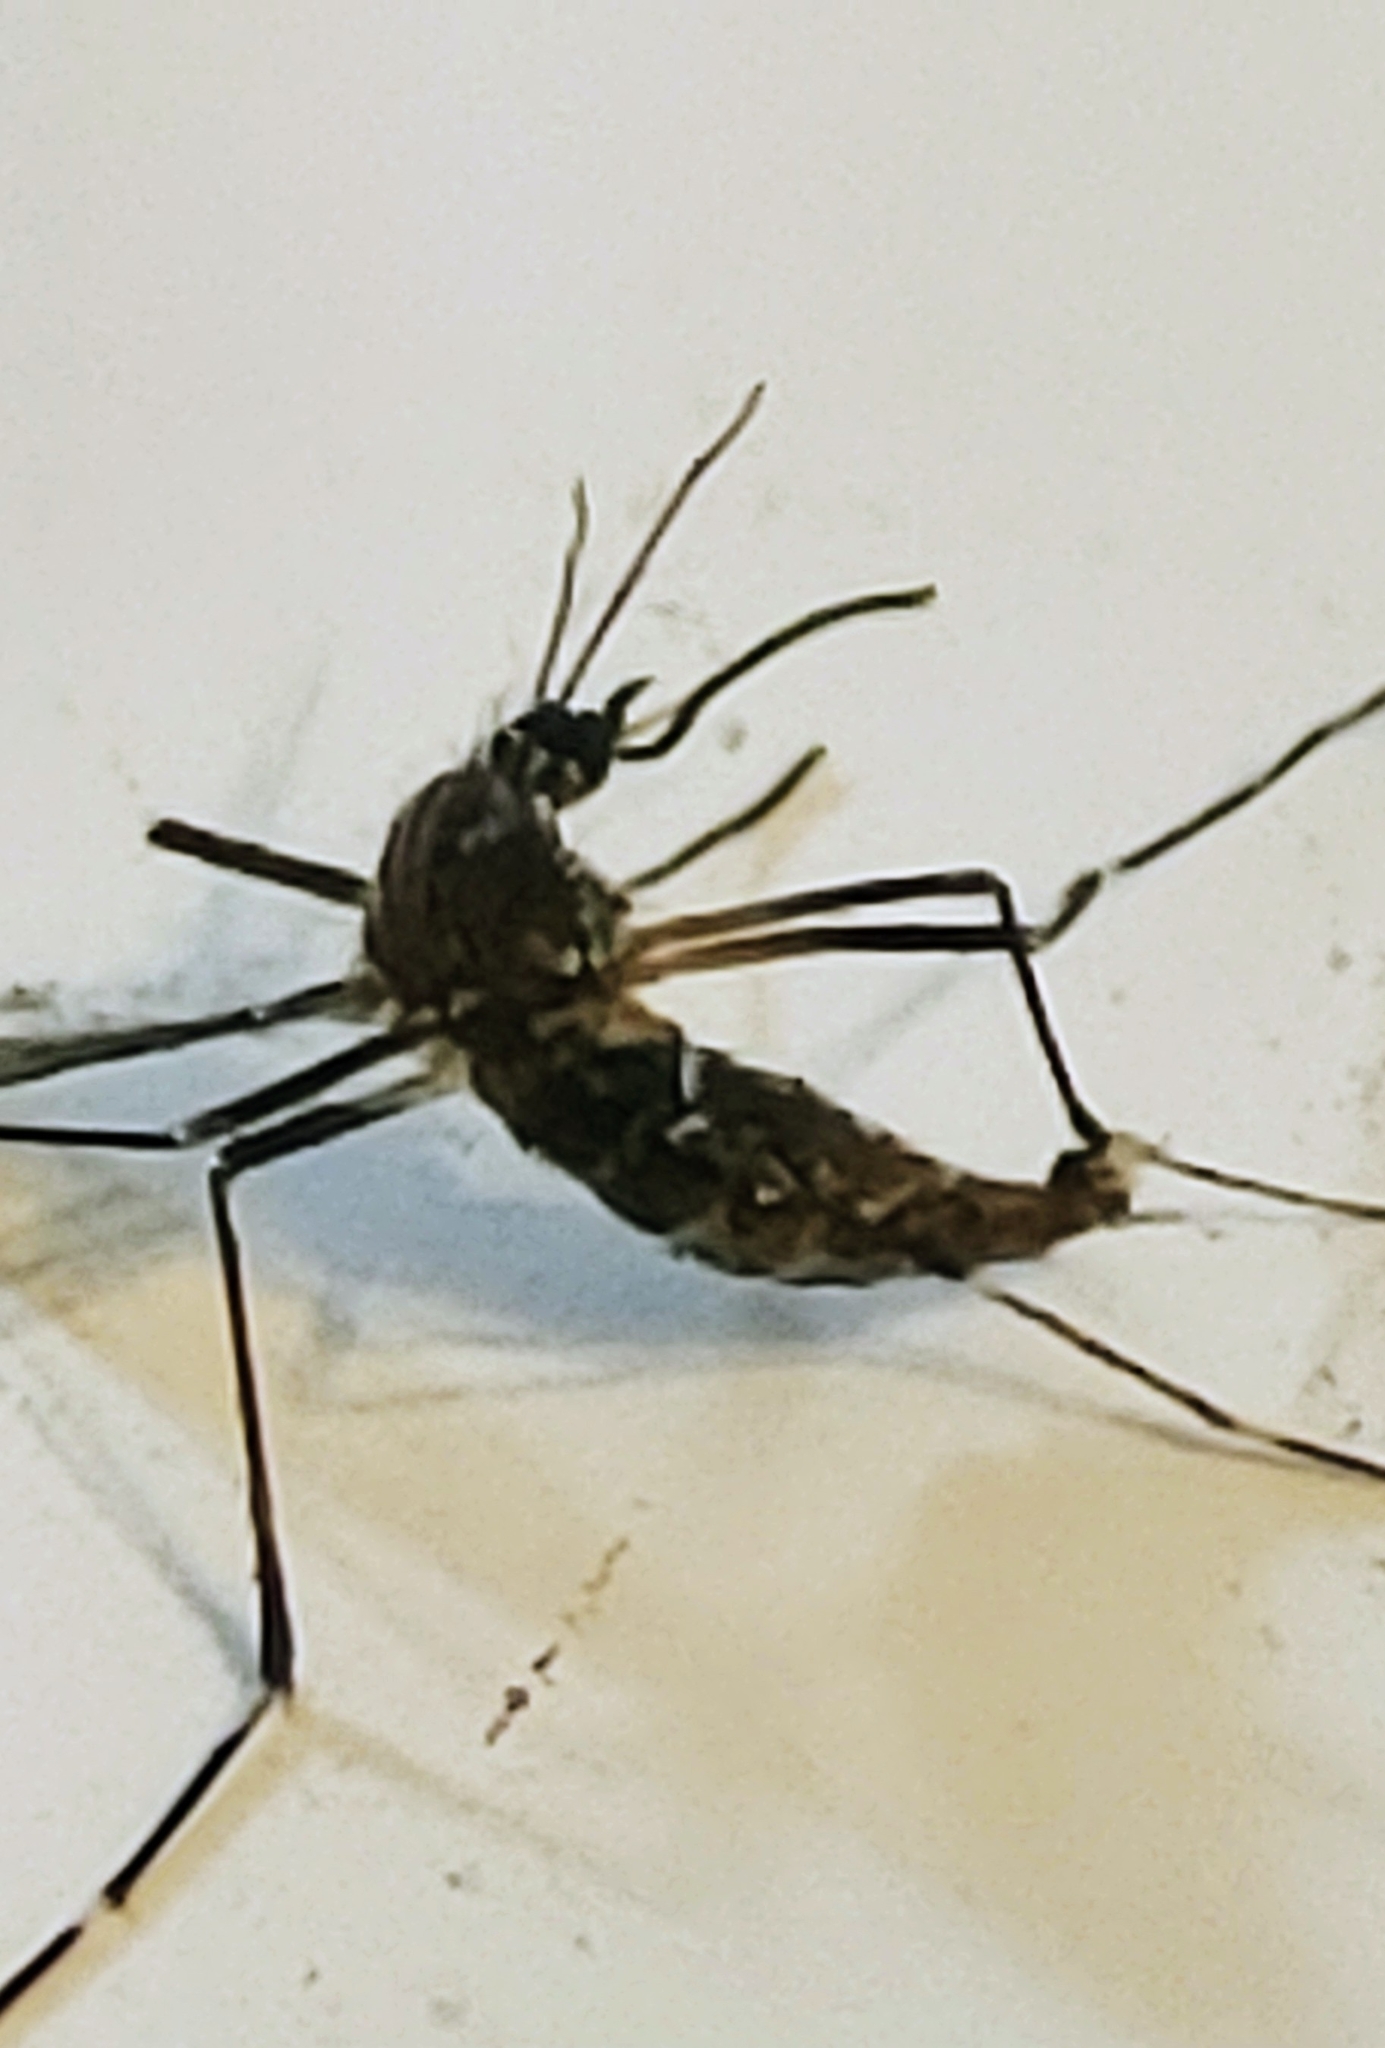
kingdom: Animalia
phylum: Arthropoda
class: Insecta
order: Diptera
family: Culicidae
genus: Aedes
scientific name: Aedes aegypti
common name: Yellow fever mosquito
